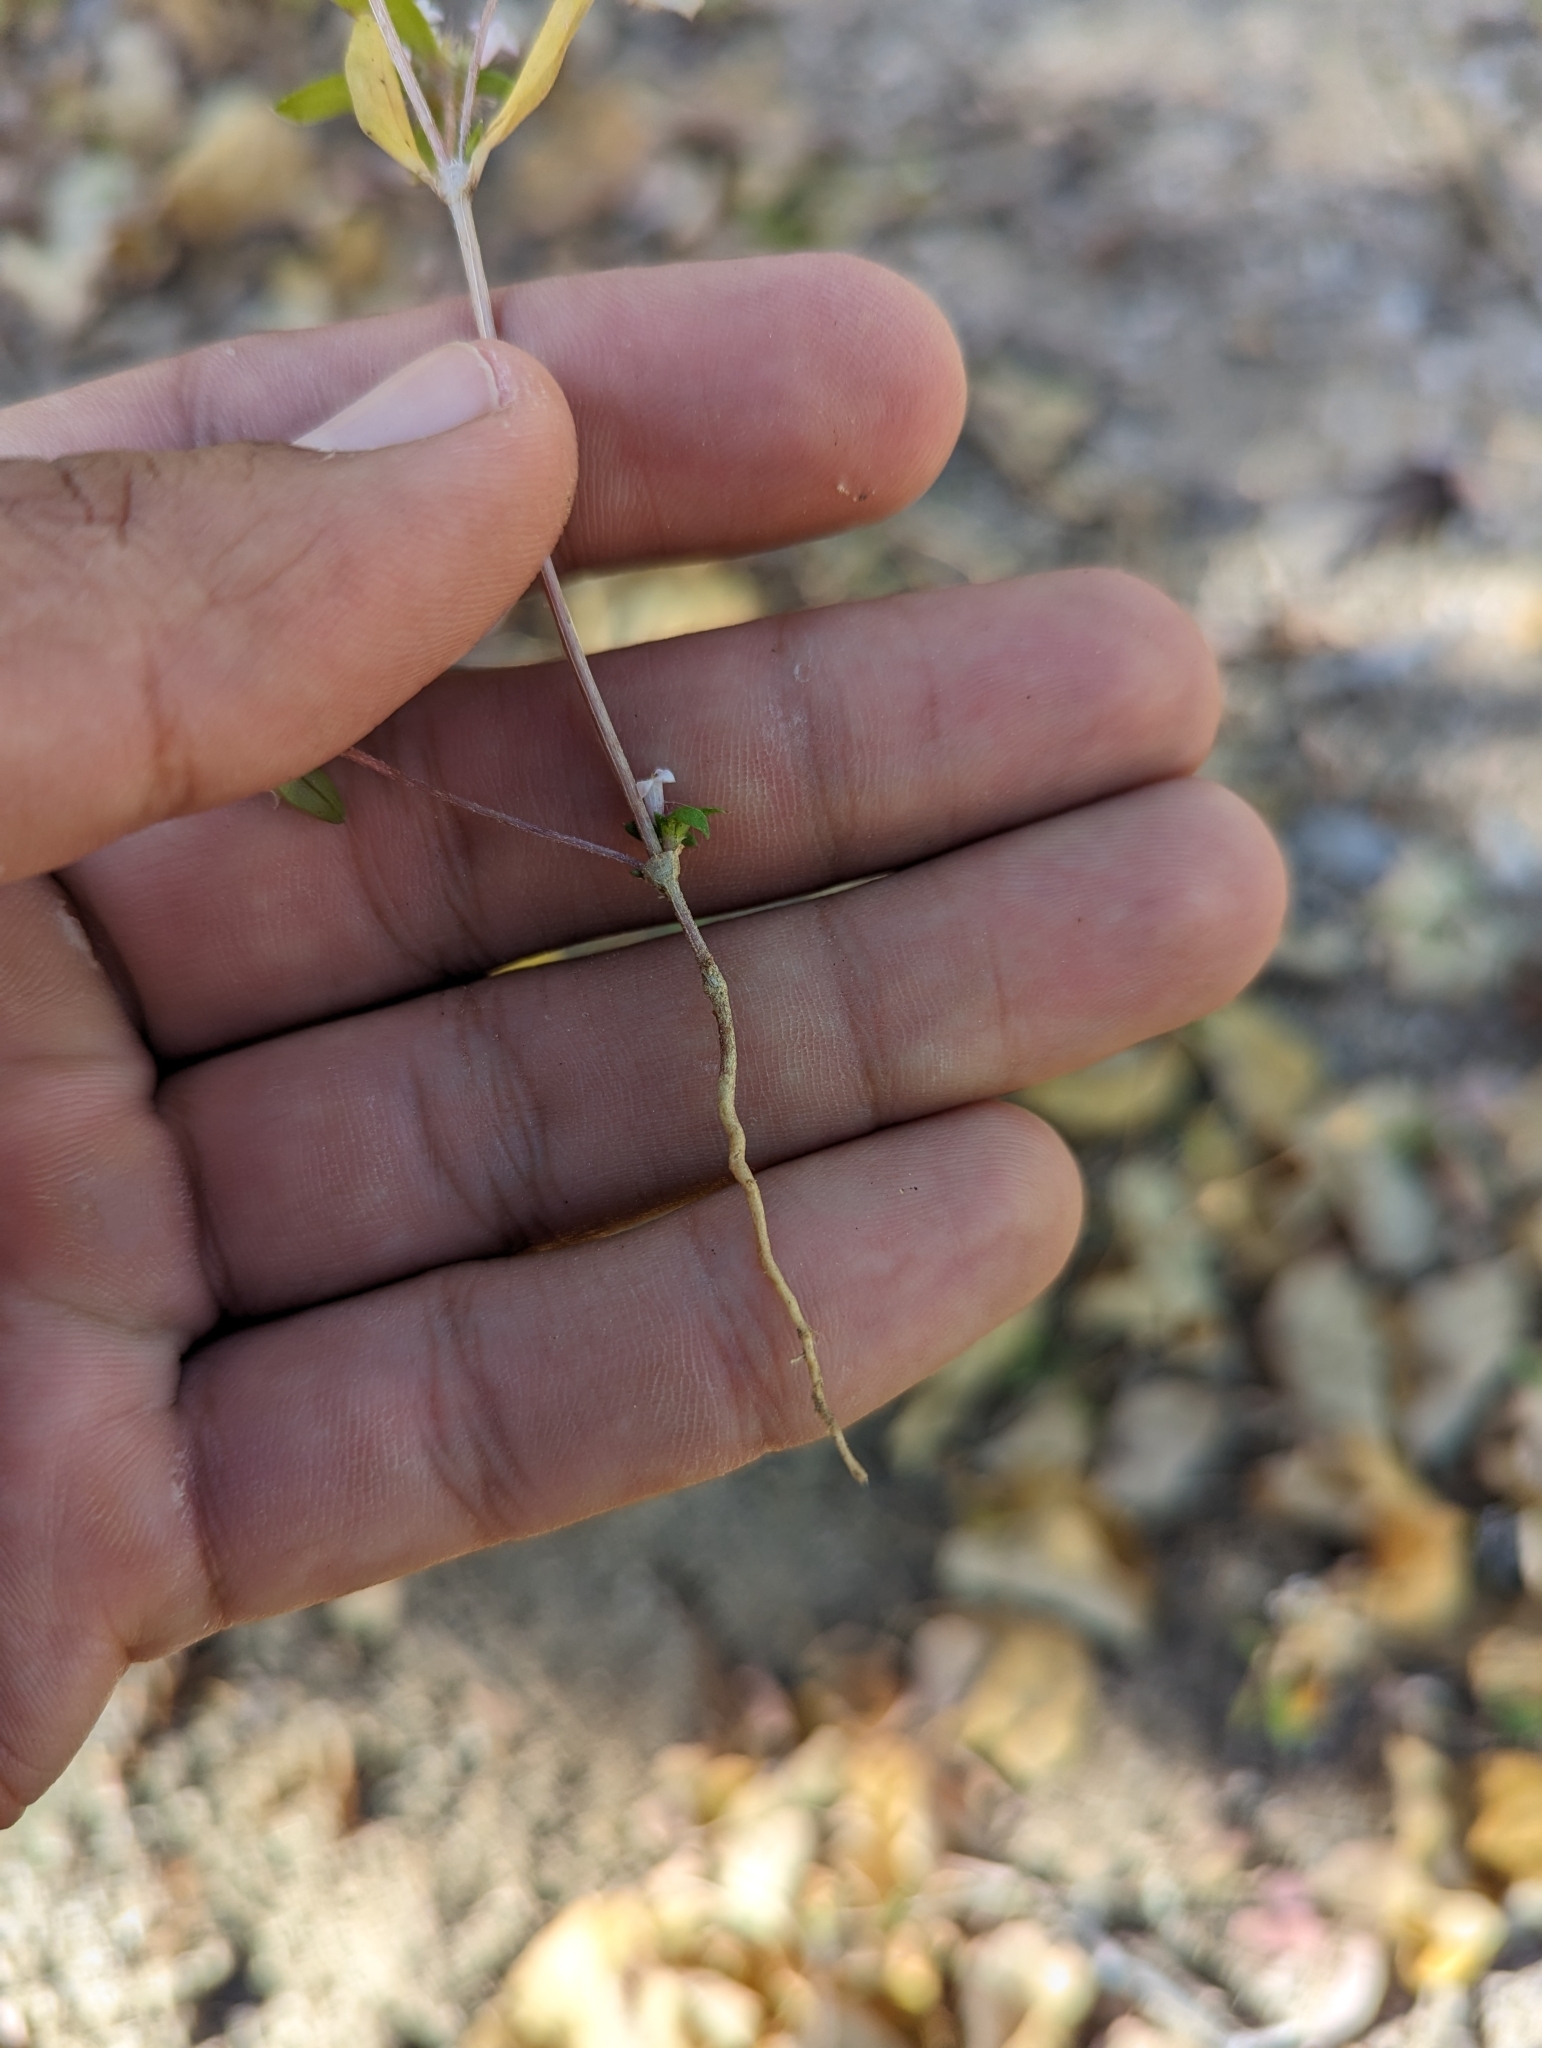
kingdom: Plantae
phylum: Tracheophyta
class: Magnoliopsida
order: Malpighiales
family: Violaceae
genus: Hybanthus
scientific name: Hybanthus fruticulosus
